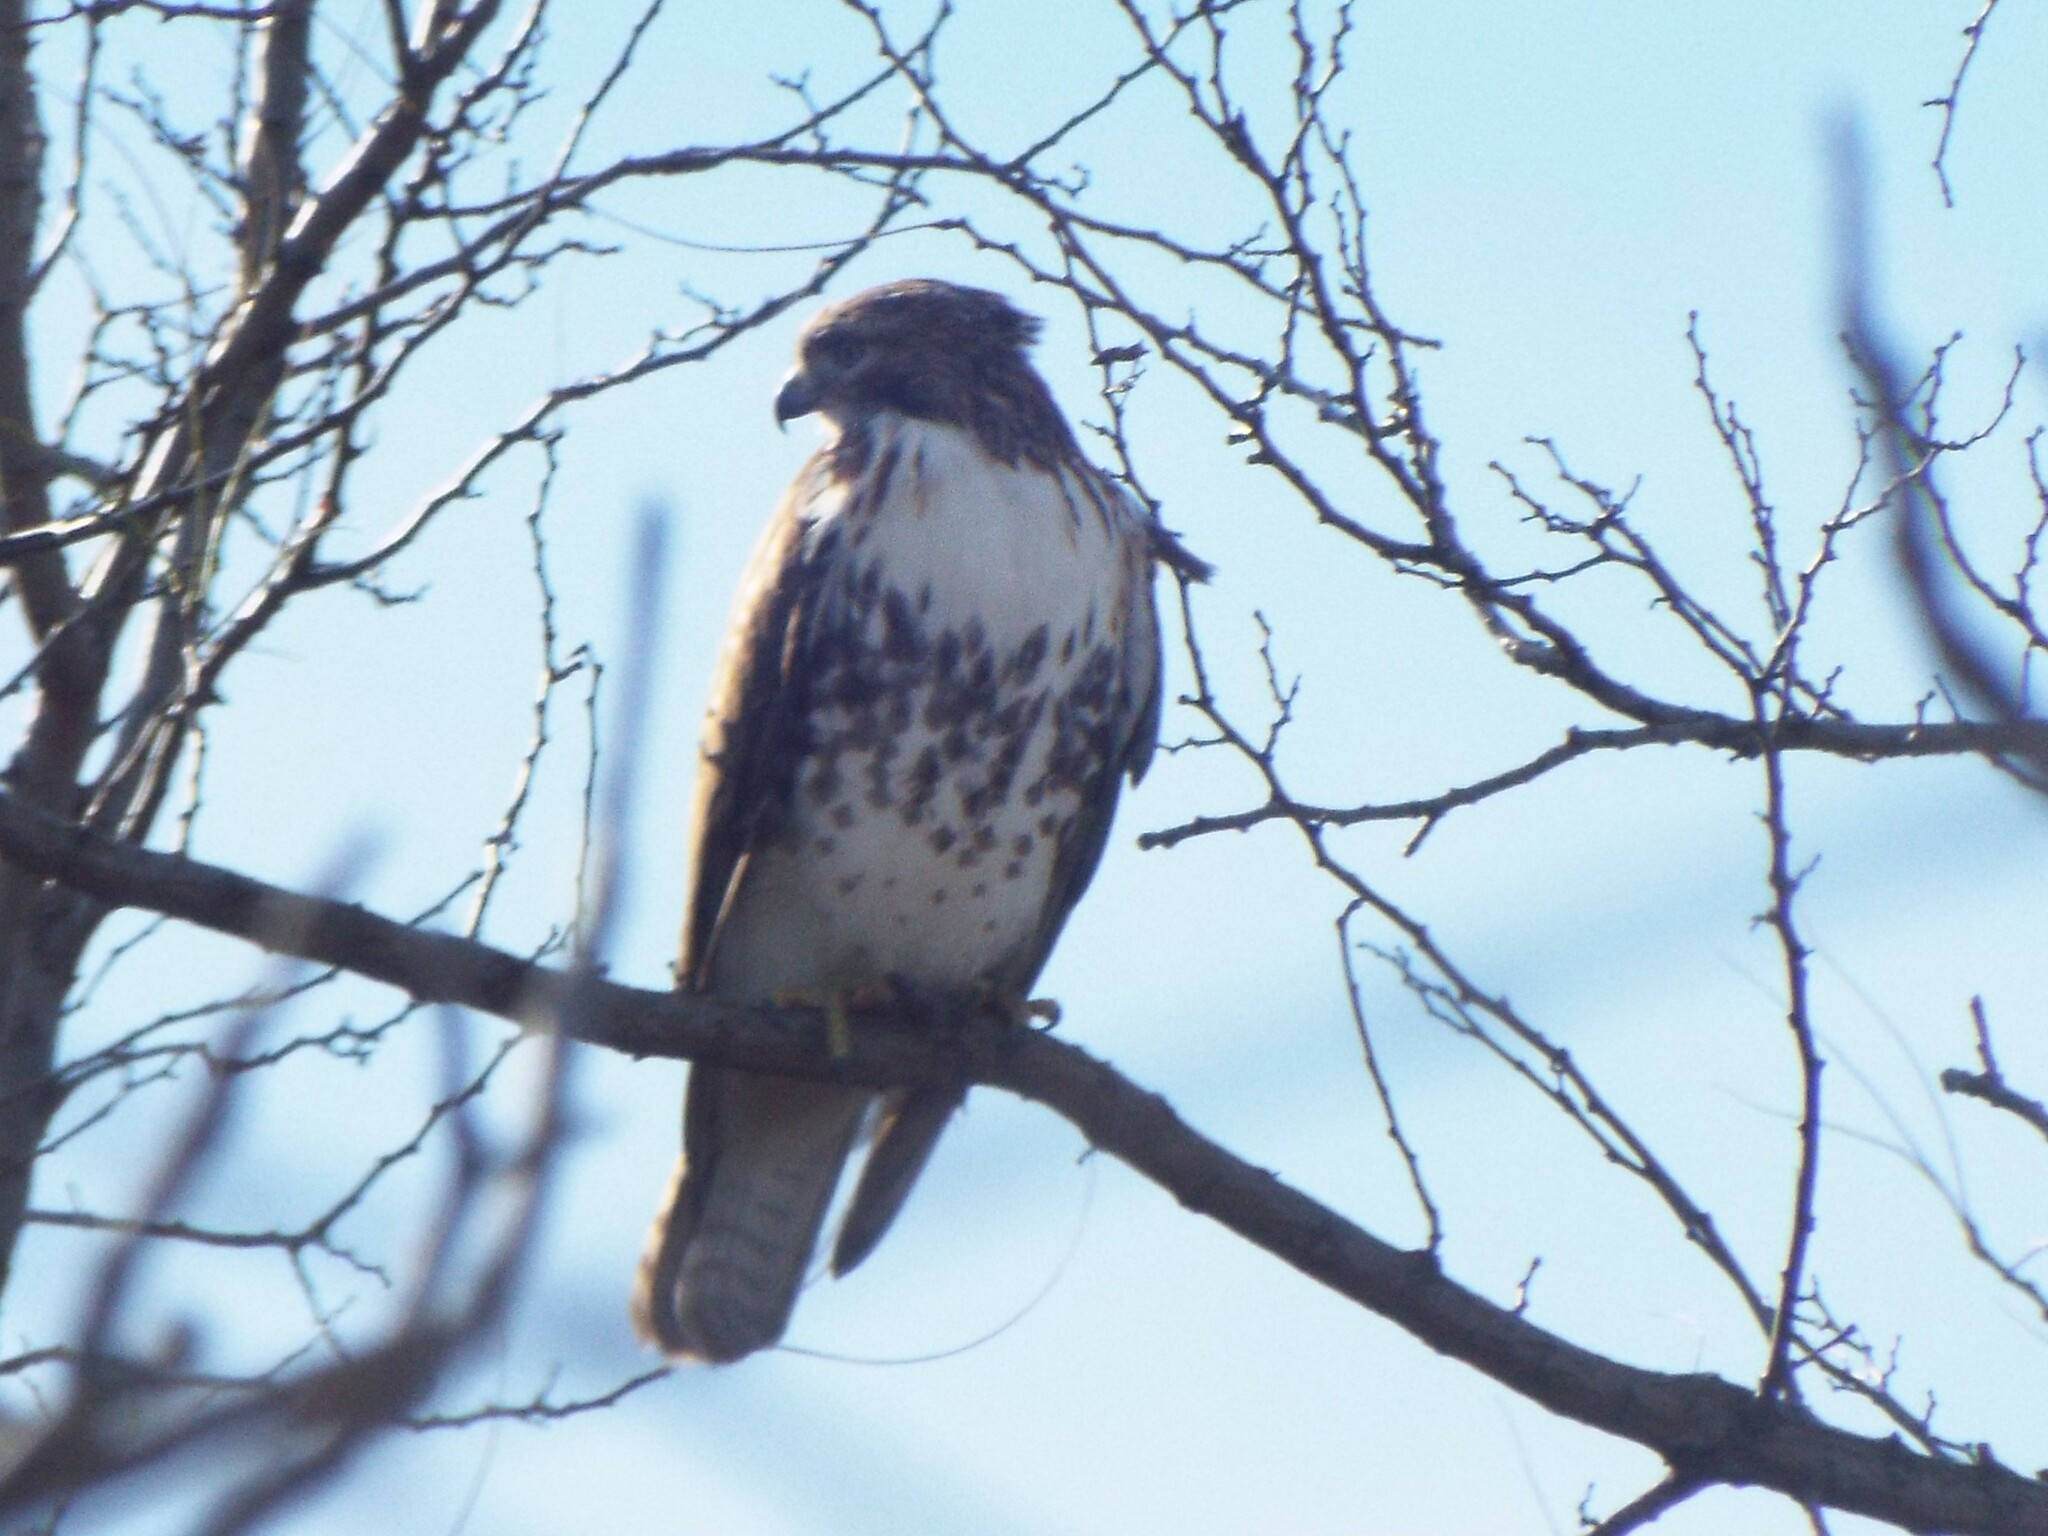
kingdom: Animalia
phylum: Chordata
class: Aves
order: Accipitriformes
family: Accipitridae
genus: Buteo
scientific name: Buteo jamaicensis
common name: Red-tailed hawk
